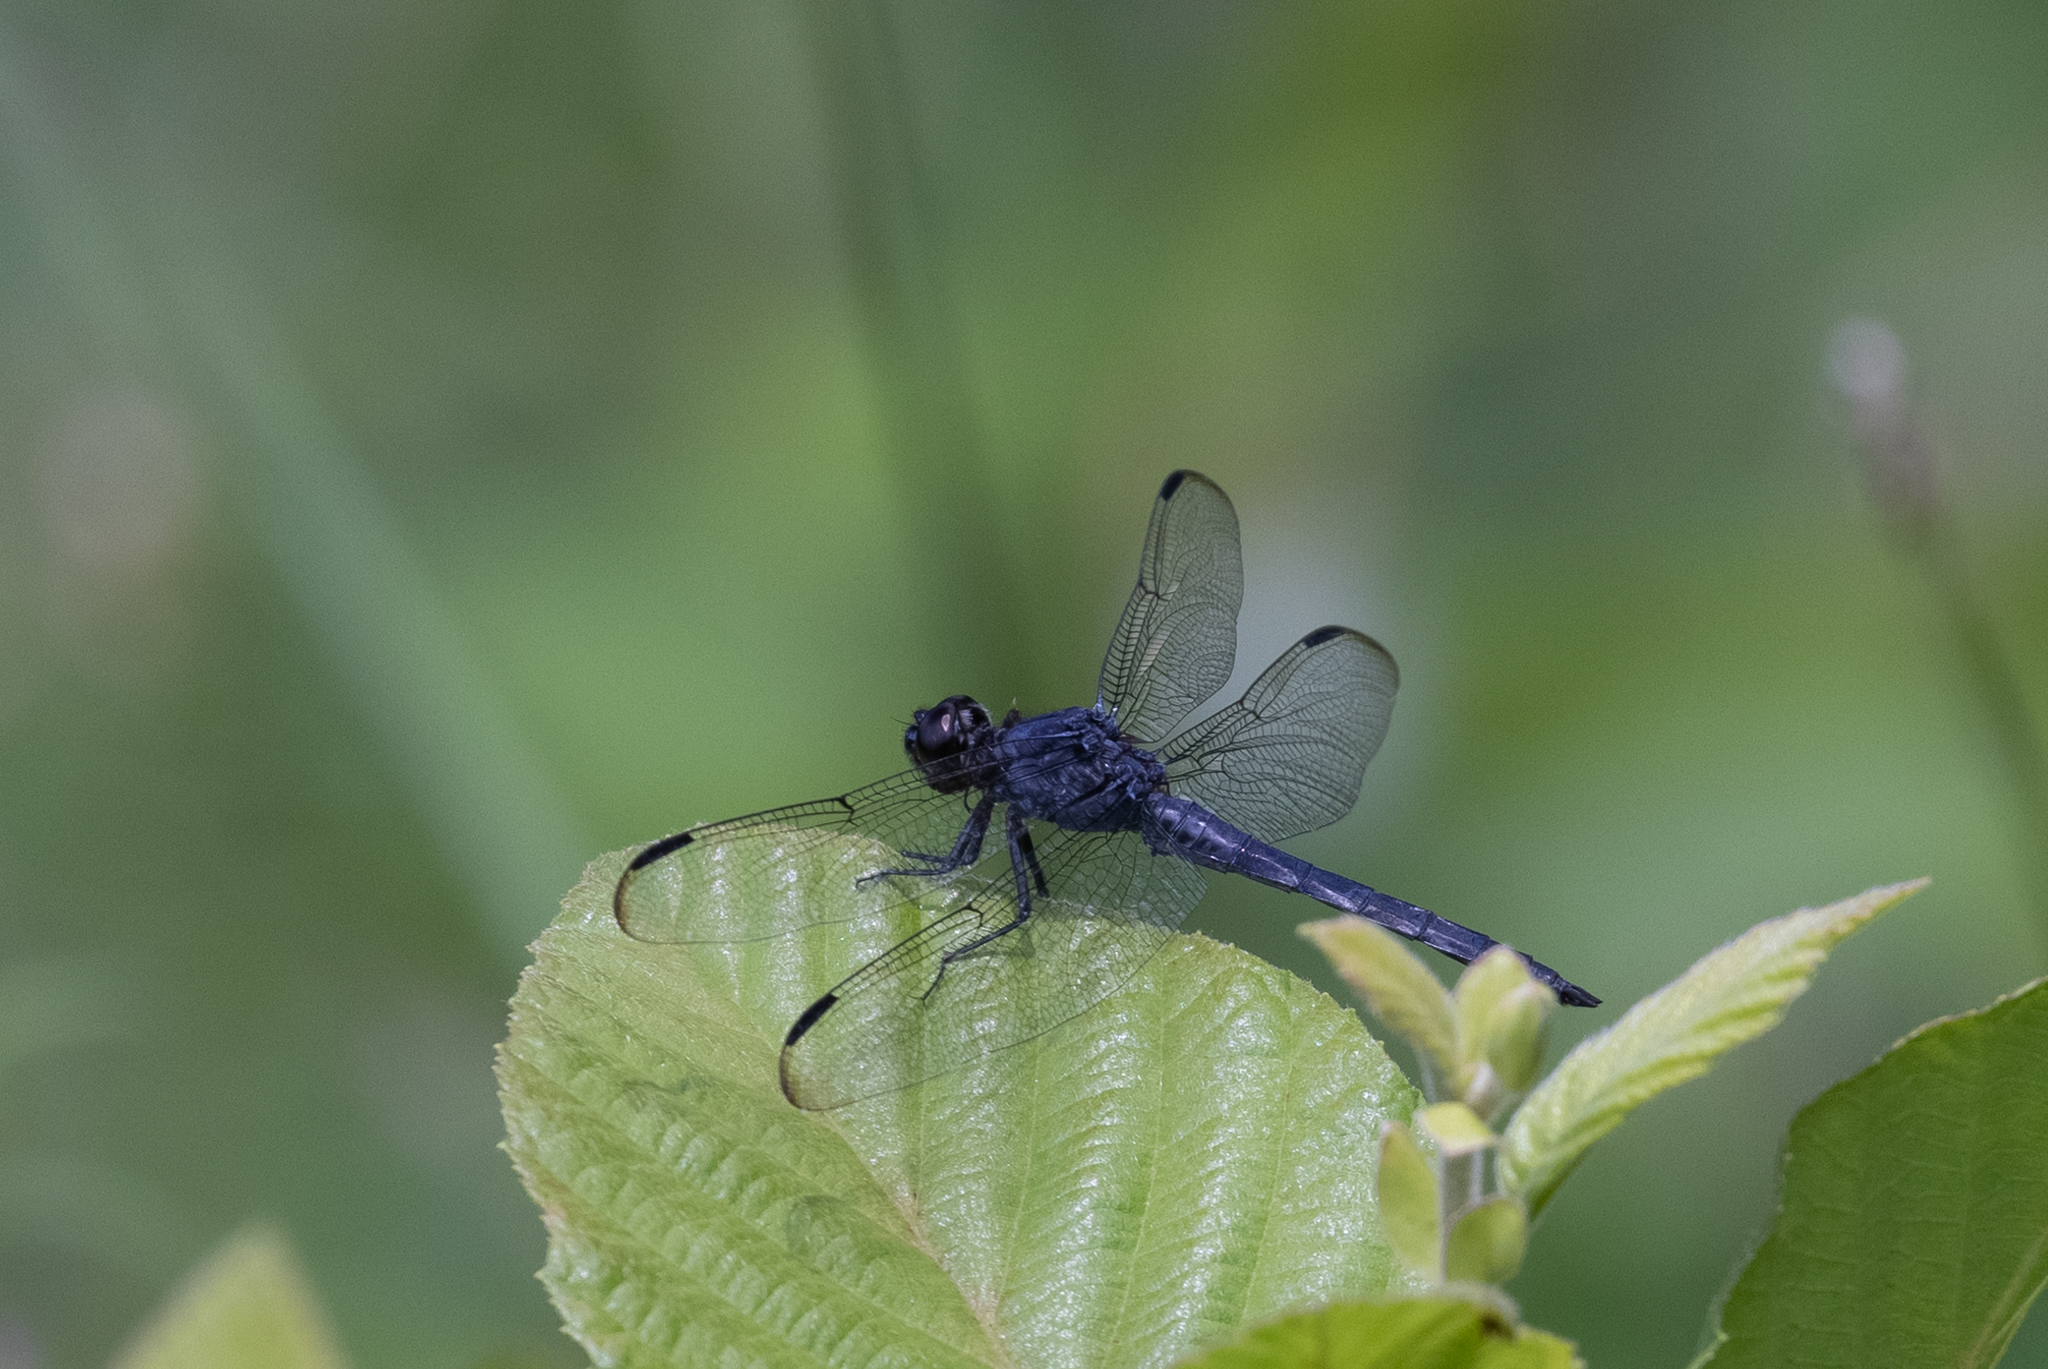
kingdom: Animalia
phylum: Arthropoda
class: Insecta
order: Odonata
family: Libellulidae
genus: Libellula
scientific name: Libellula incesta
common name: Slaty skimmer
